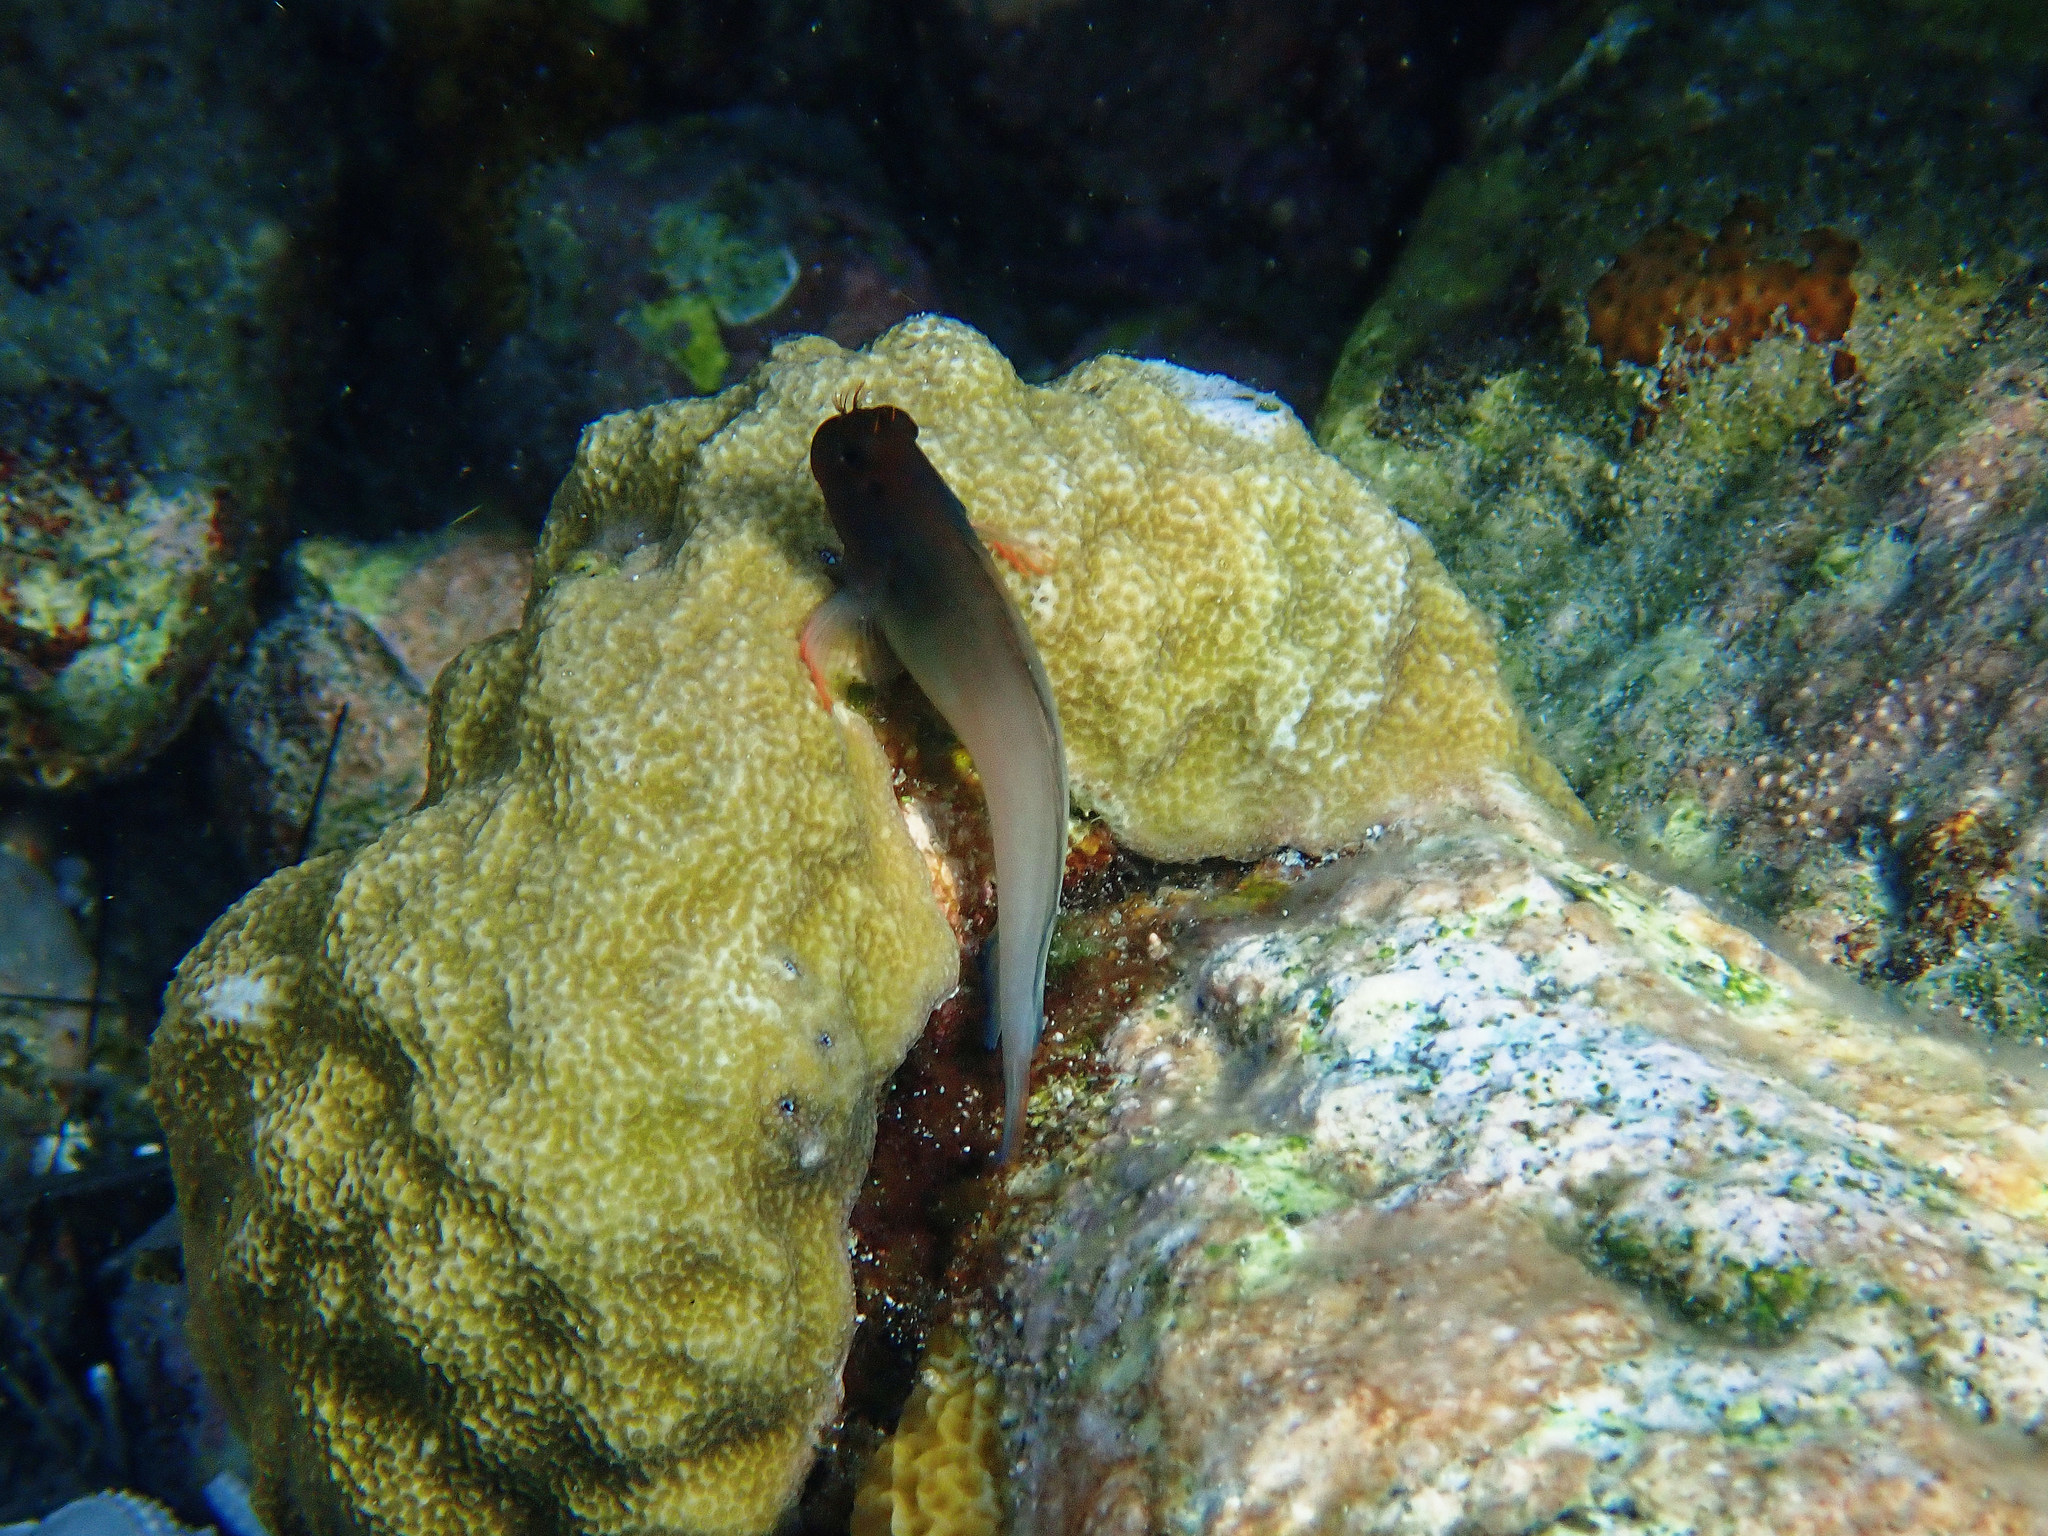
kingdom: Animalia
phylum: Chordata
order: Perciformes
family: Blenniidae
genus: Ophioblennius
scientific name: Ophioblennius macclurei
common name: Redlip blenny
